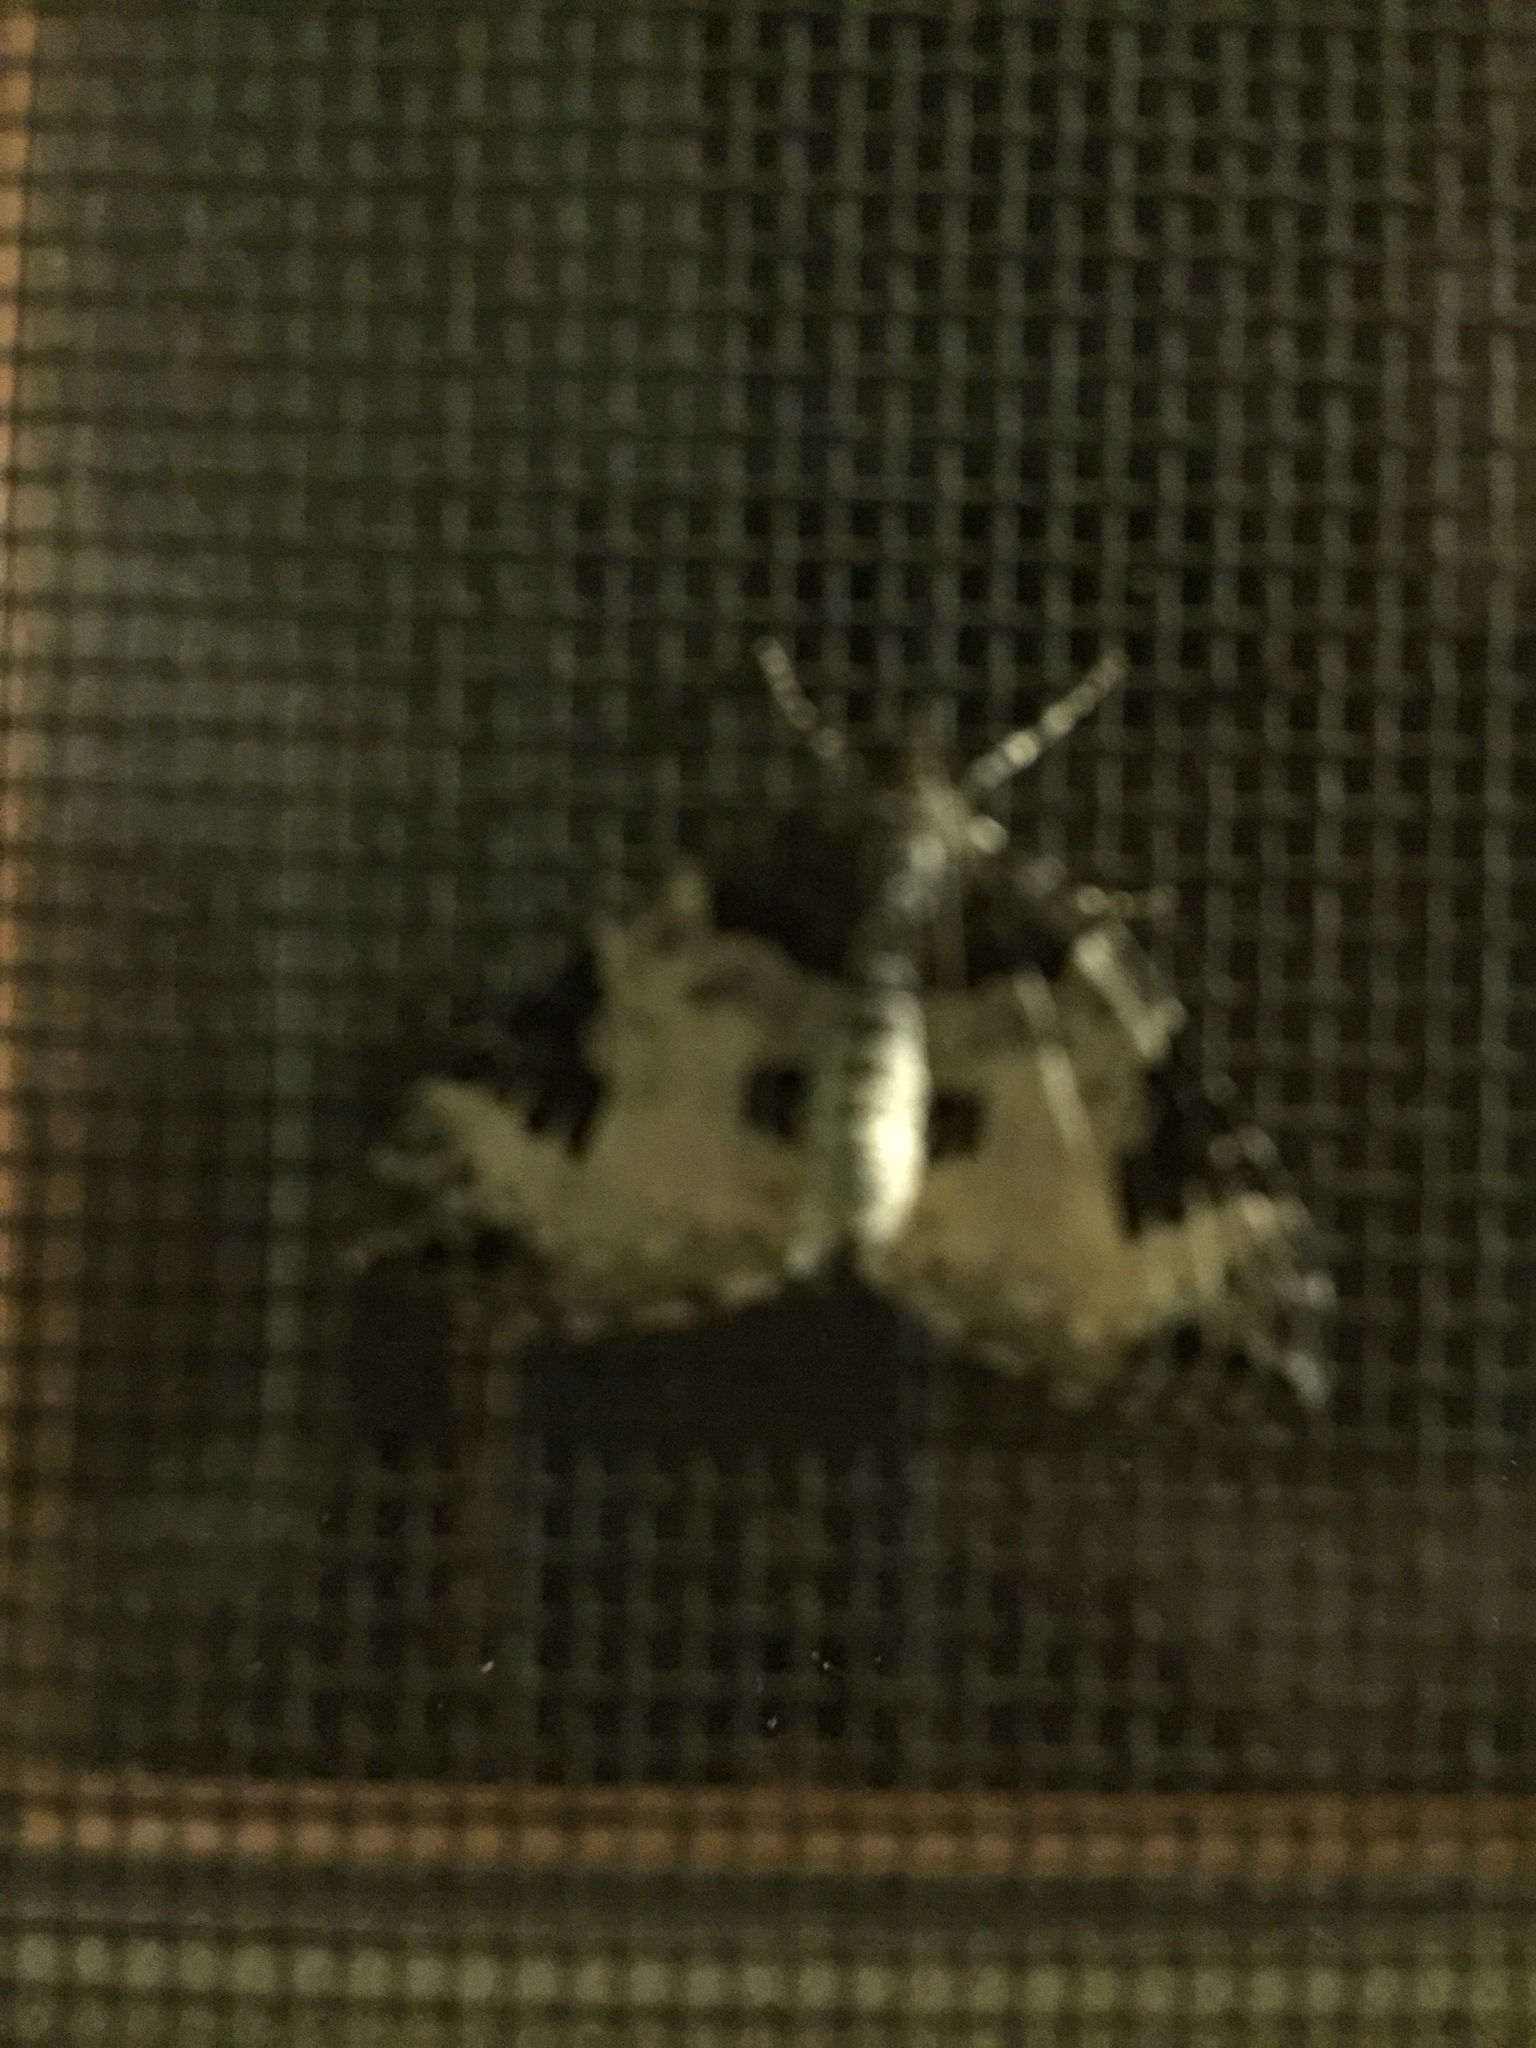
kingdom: Animalia
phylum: Arthropoda
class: Insecta
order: Lepidoptera
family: Geometridae
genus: Eulithis
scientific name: Eulithis explanata
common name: White eulithis
